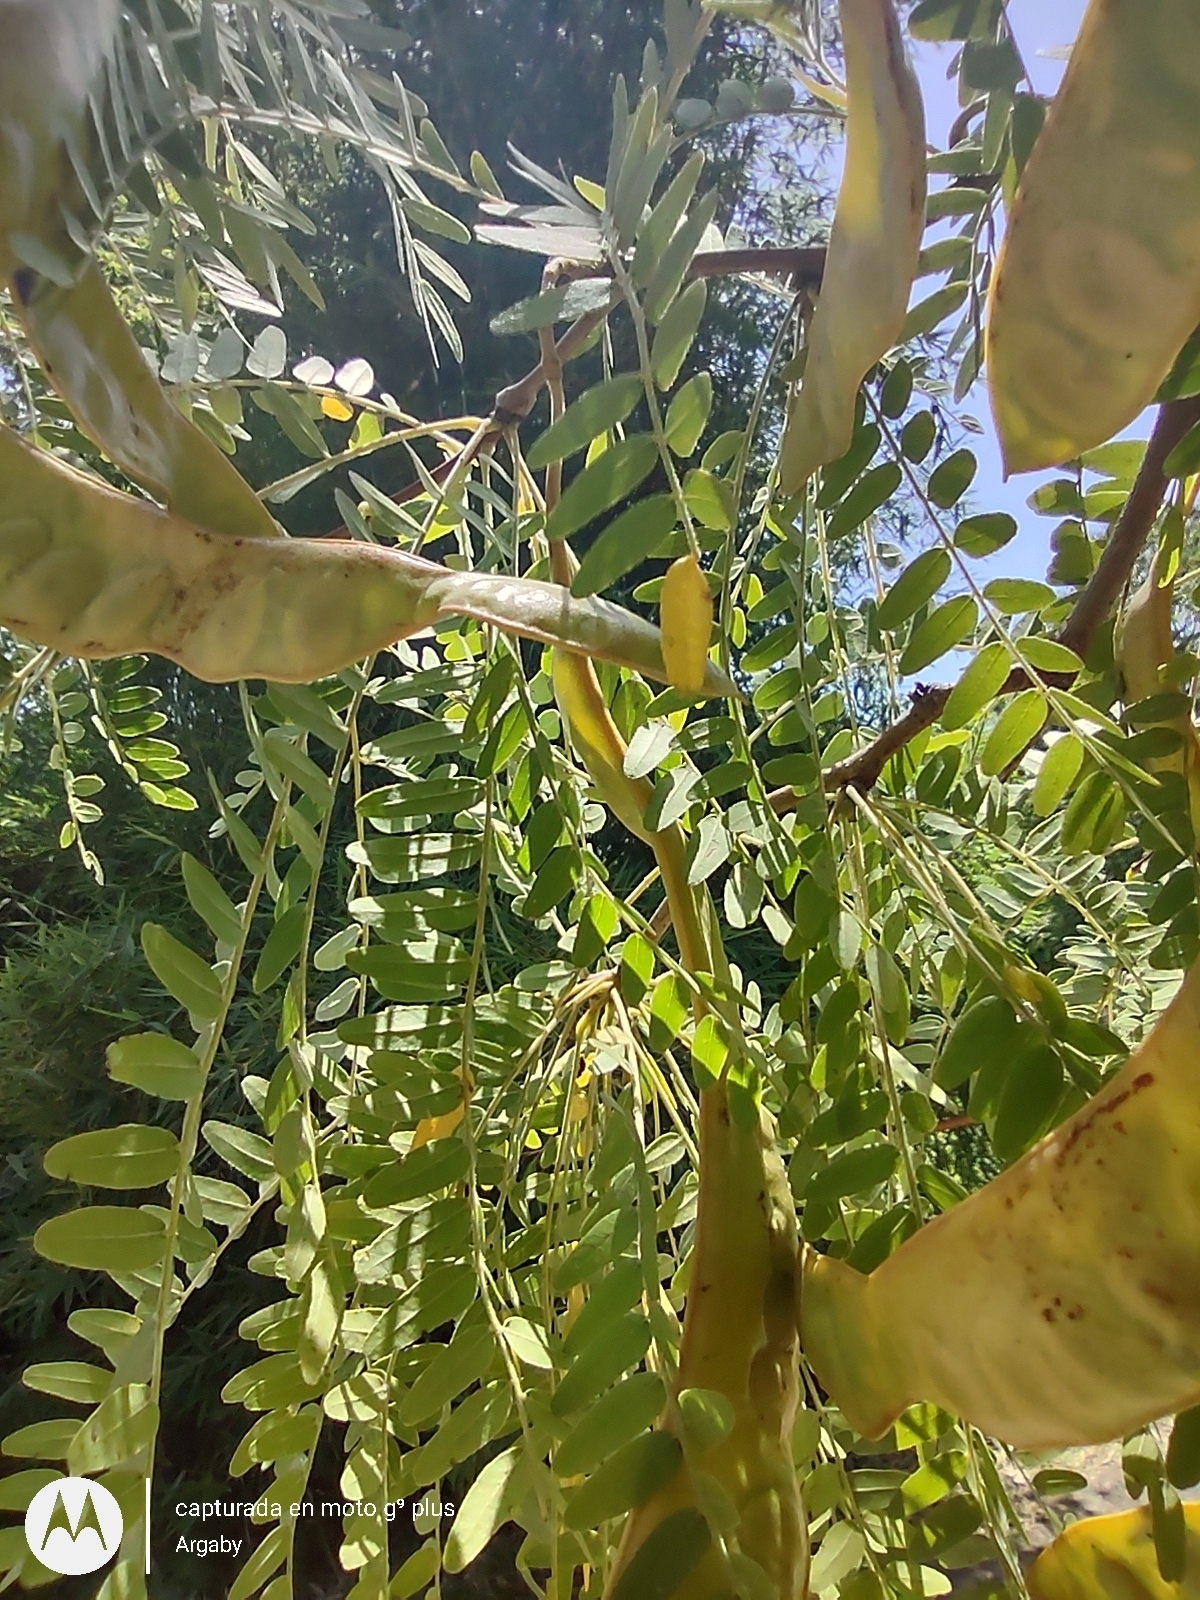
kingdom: Plantae
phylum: Tracheophyta
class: Magnoliopsida
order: Fabales
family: Fabaceae
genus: Gleditsia
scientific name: Gleditsia triacanthos
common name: Common honeylocust
